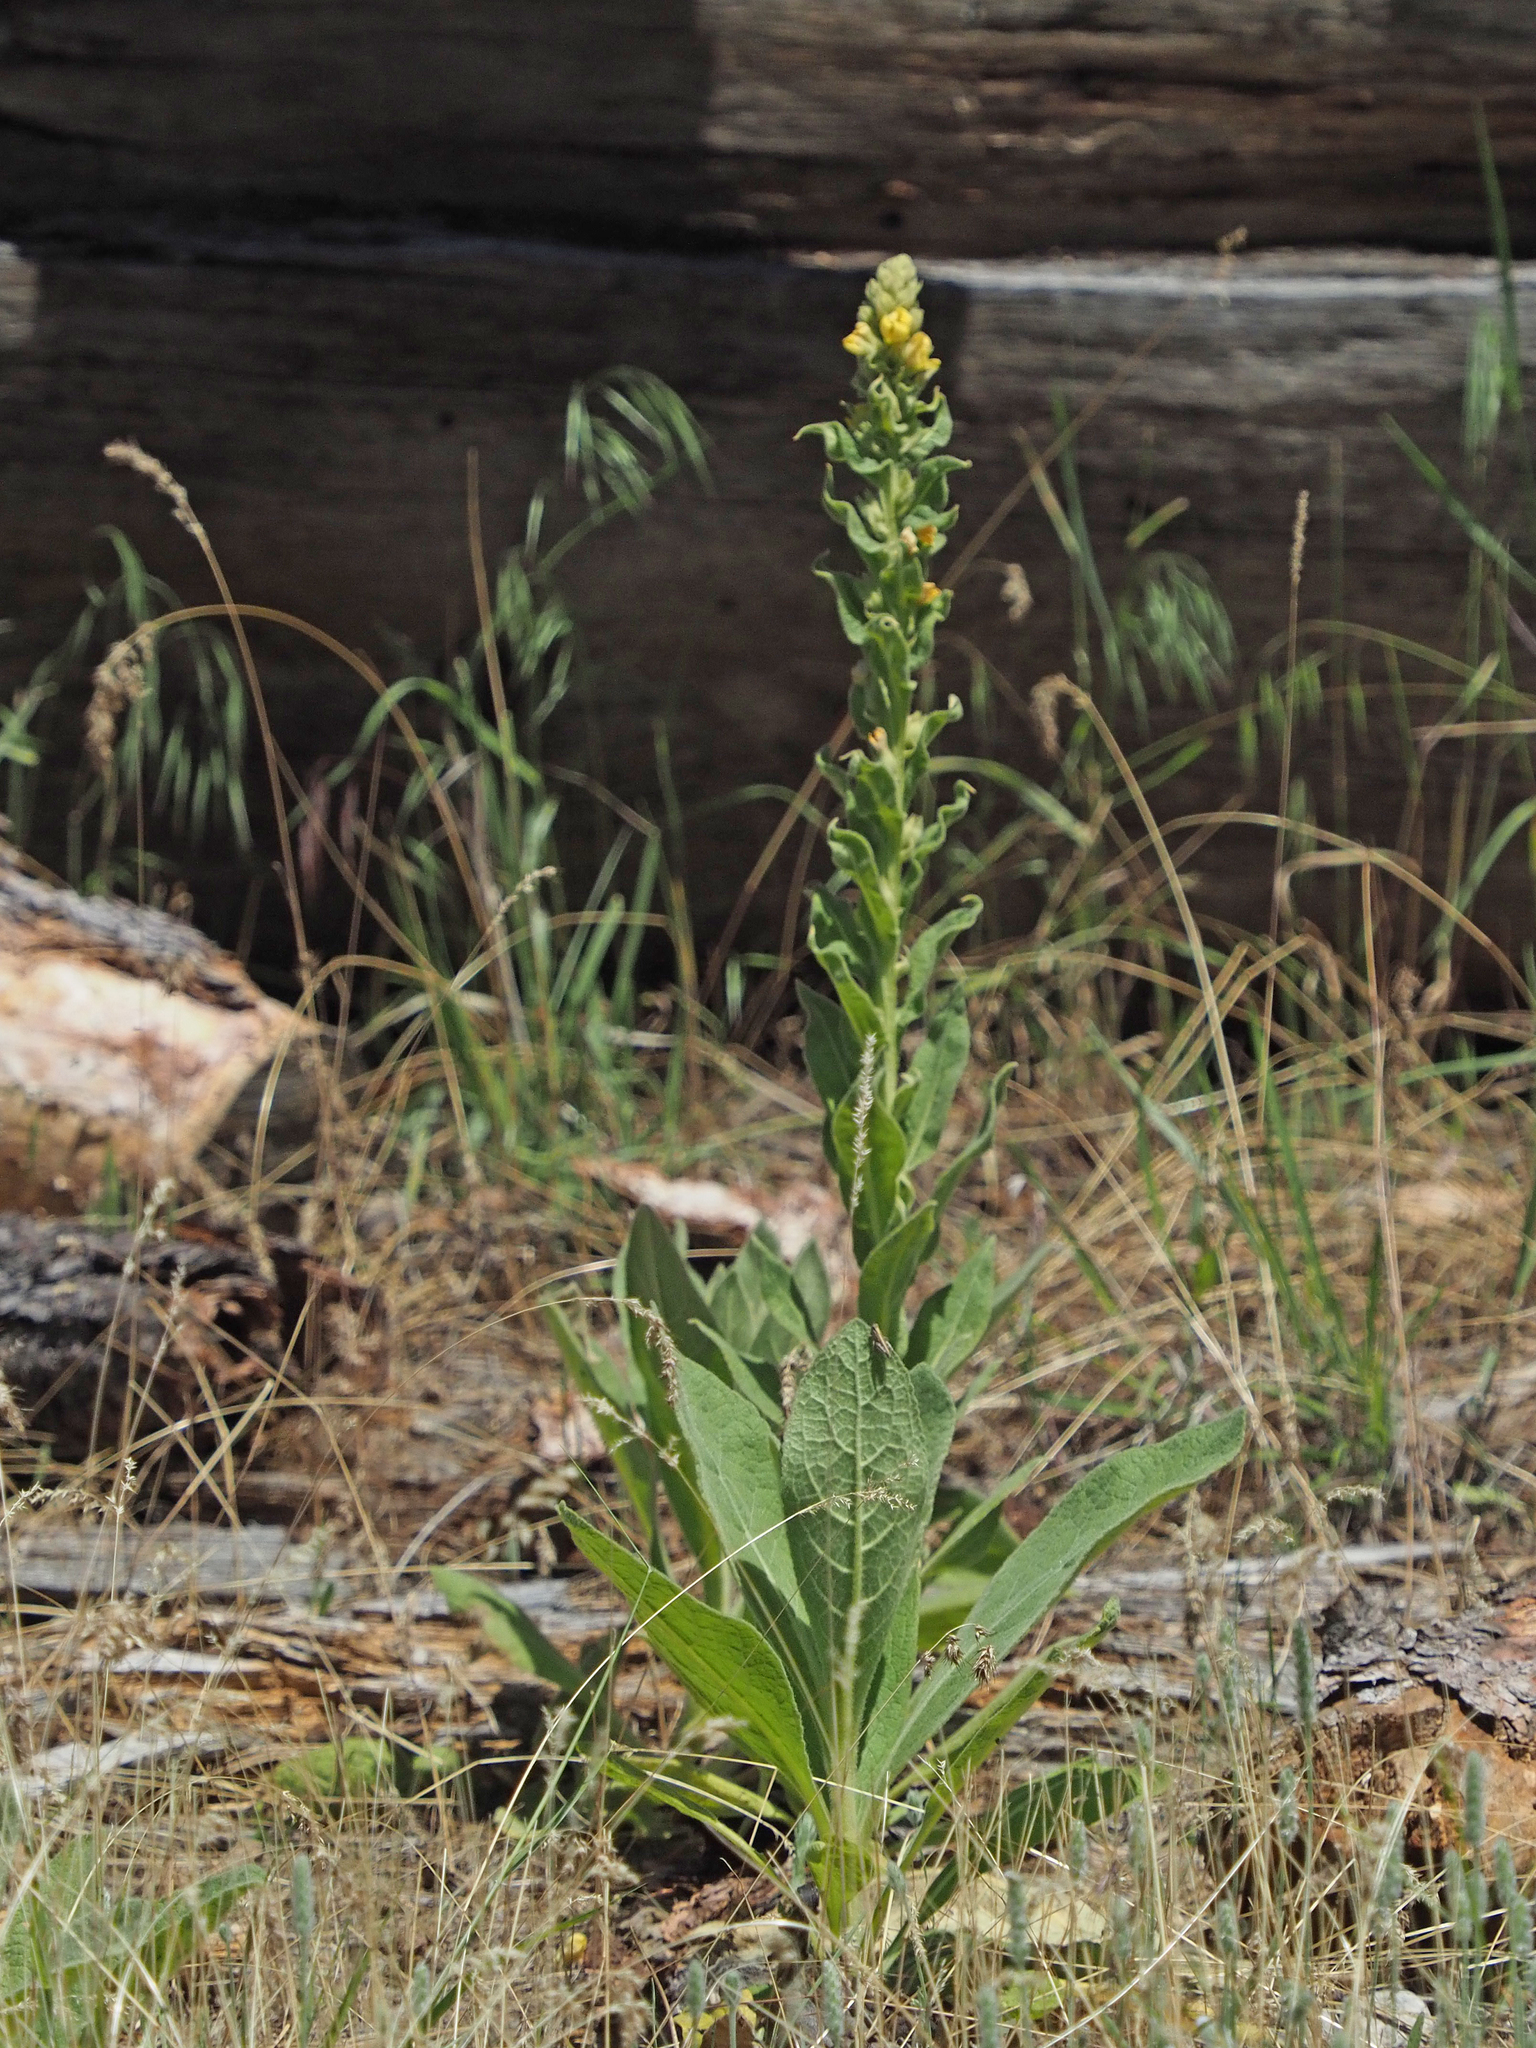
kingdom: Plantae
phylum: Tracheophyta
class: Magnoliopsida
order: Lamiales
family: Scrophulariaceae
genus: Verbascum
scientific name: Verbascum thapsus
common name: Common mullein
